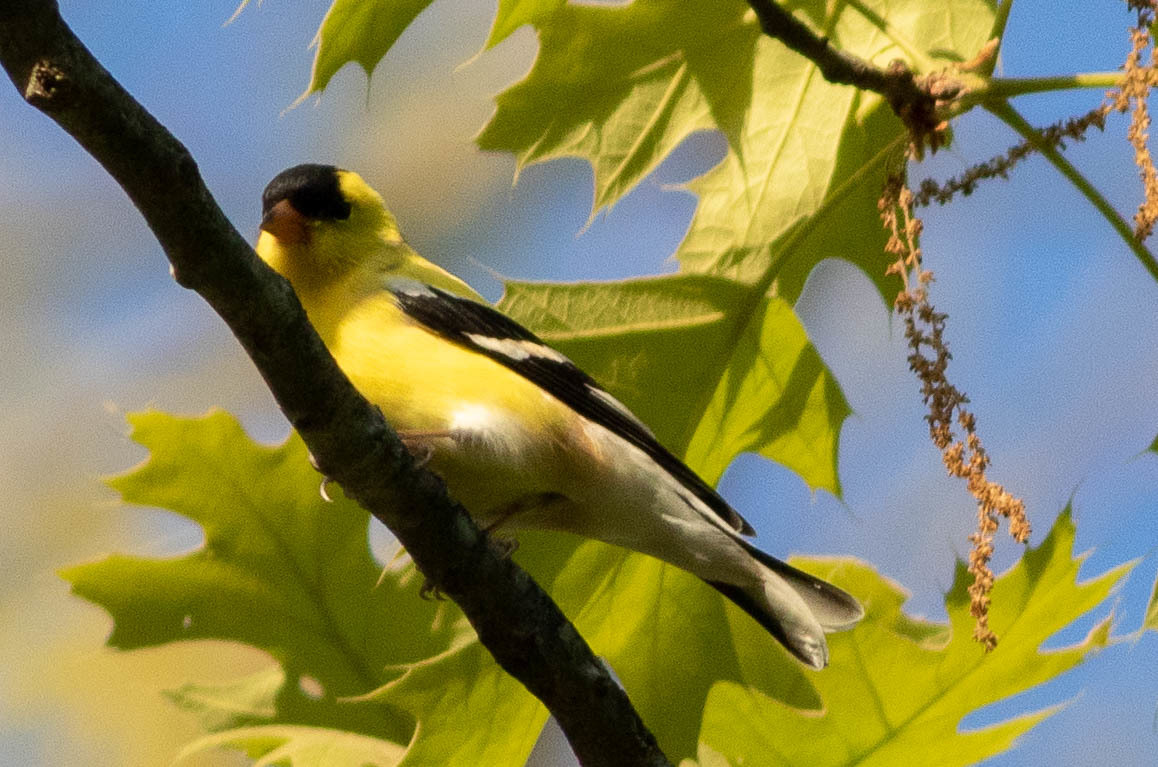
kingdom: Animalia
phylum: Chordata
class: Aves
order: Passeriformes
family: Fringillidae
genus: Spinus
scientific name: Spinus tristis
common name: American goldfinch
